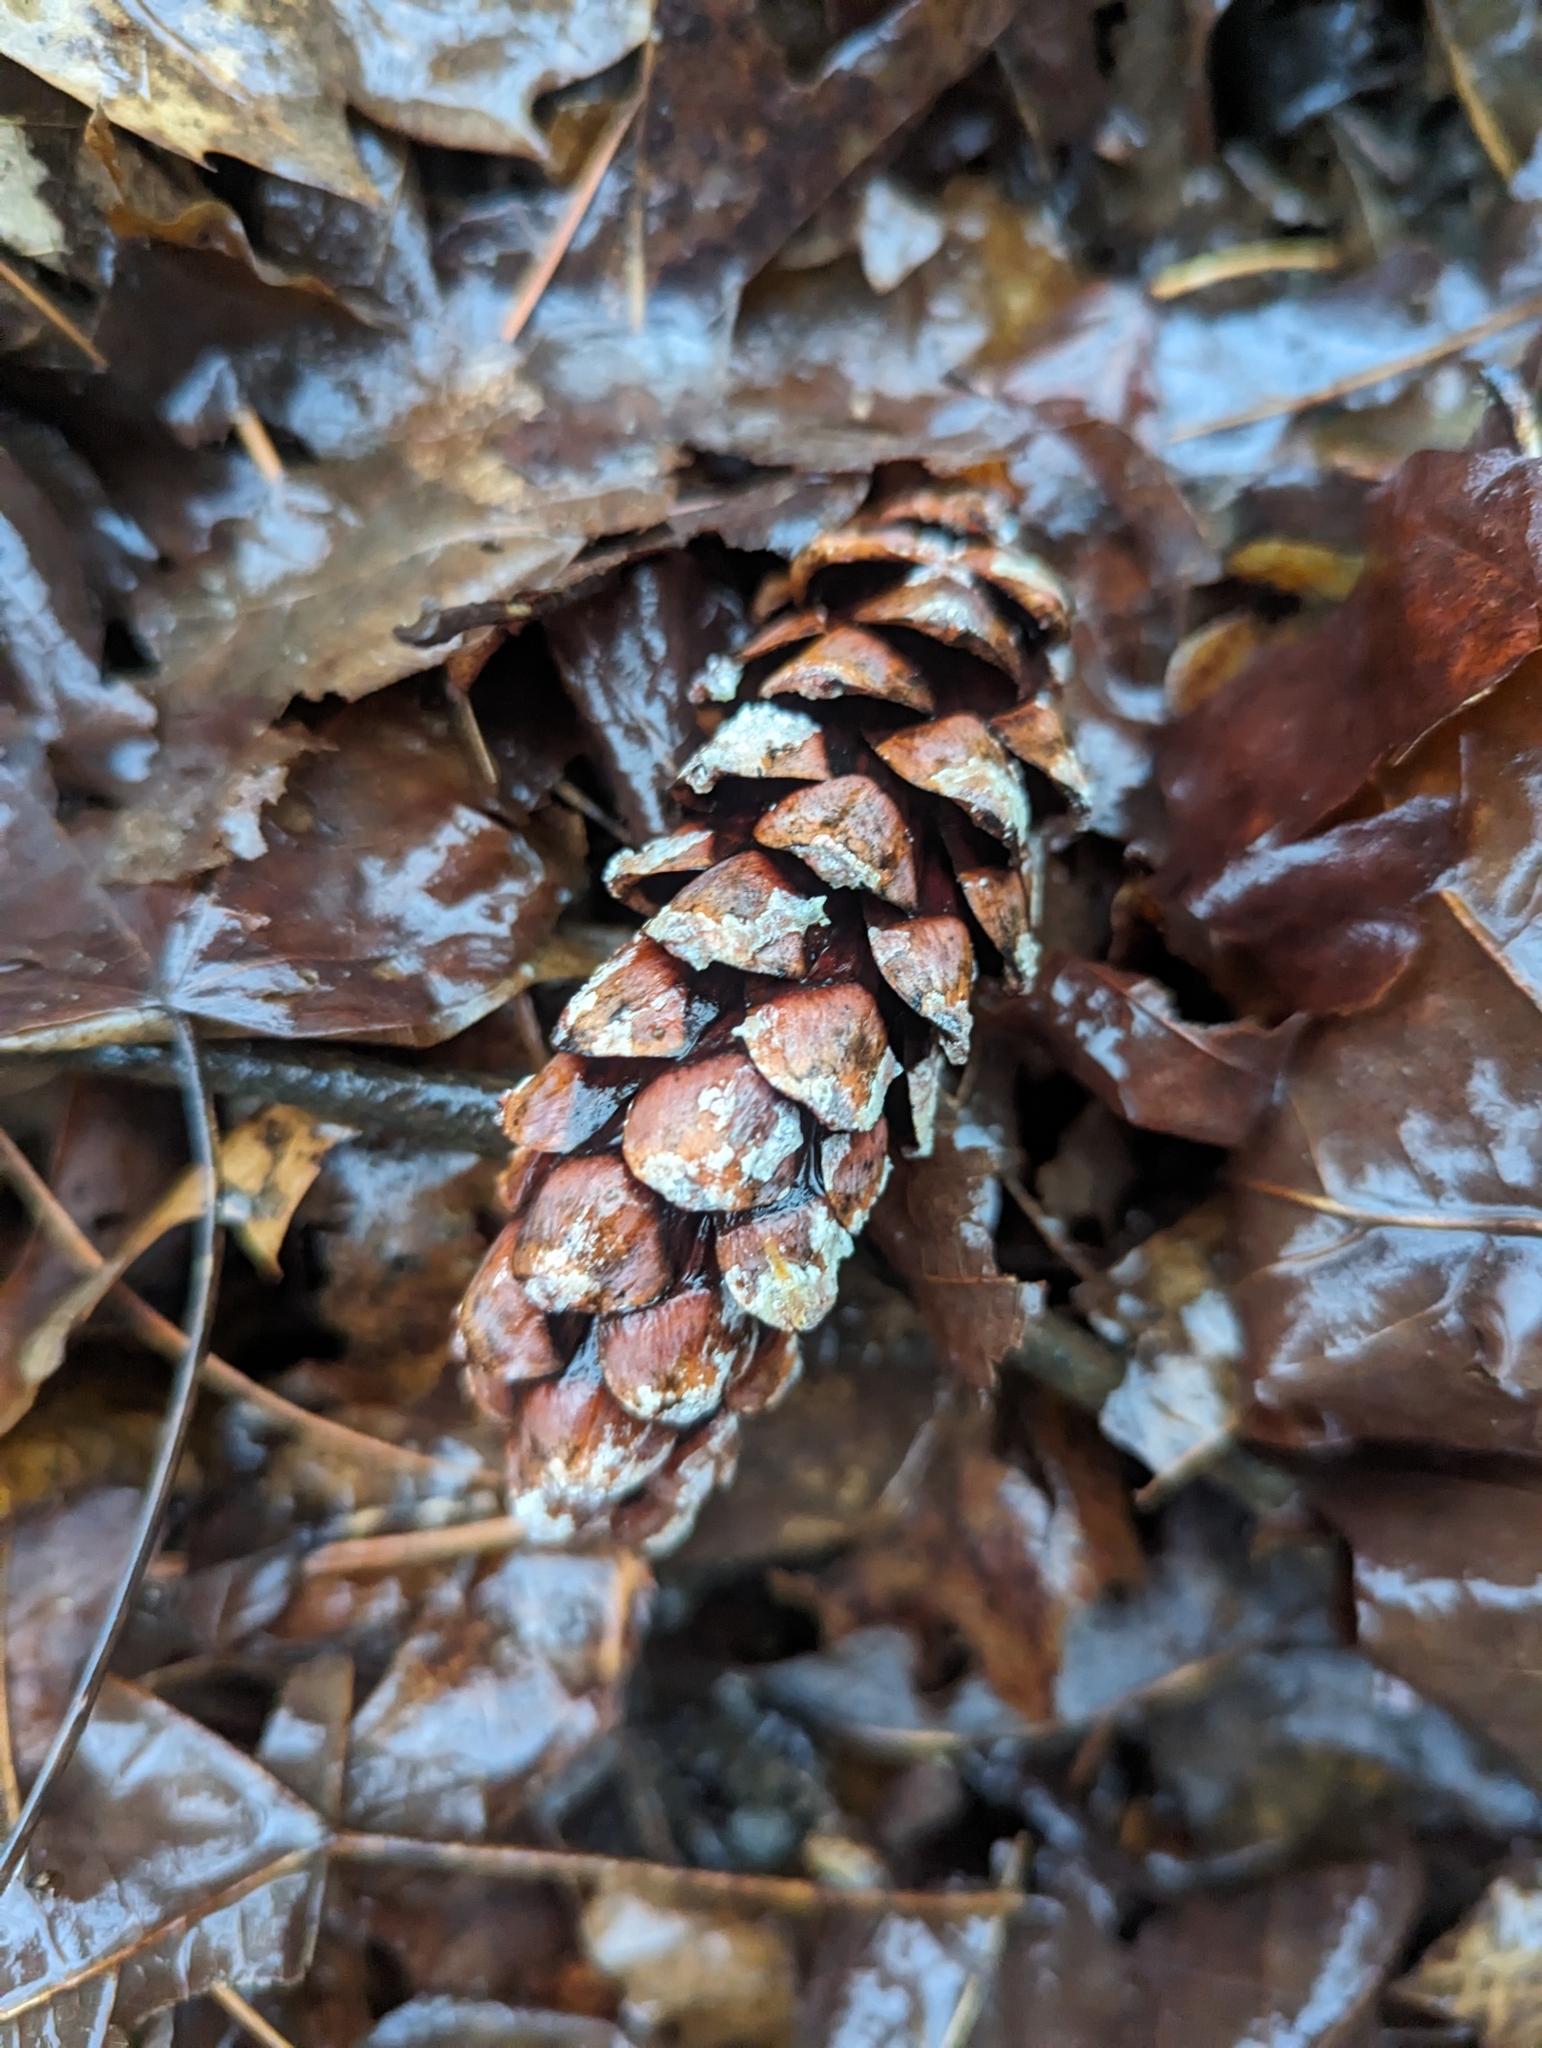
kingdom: Plantae
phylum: Tracheophyta
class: Pinopsida
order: Pinales
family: Pinaceae
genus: Pinus
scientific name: Pinus strobus
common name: Weymouth pine
